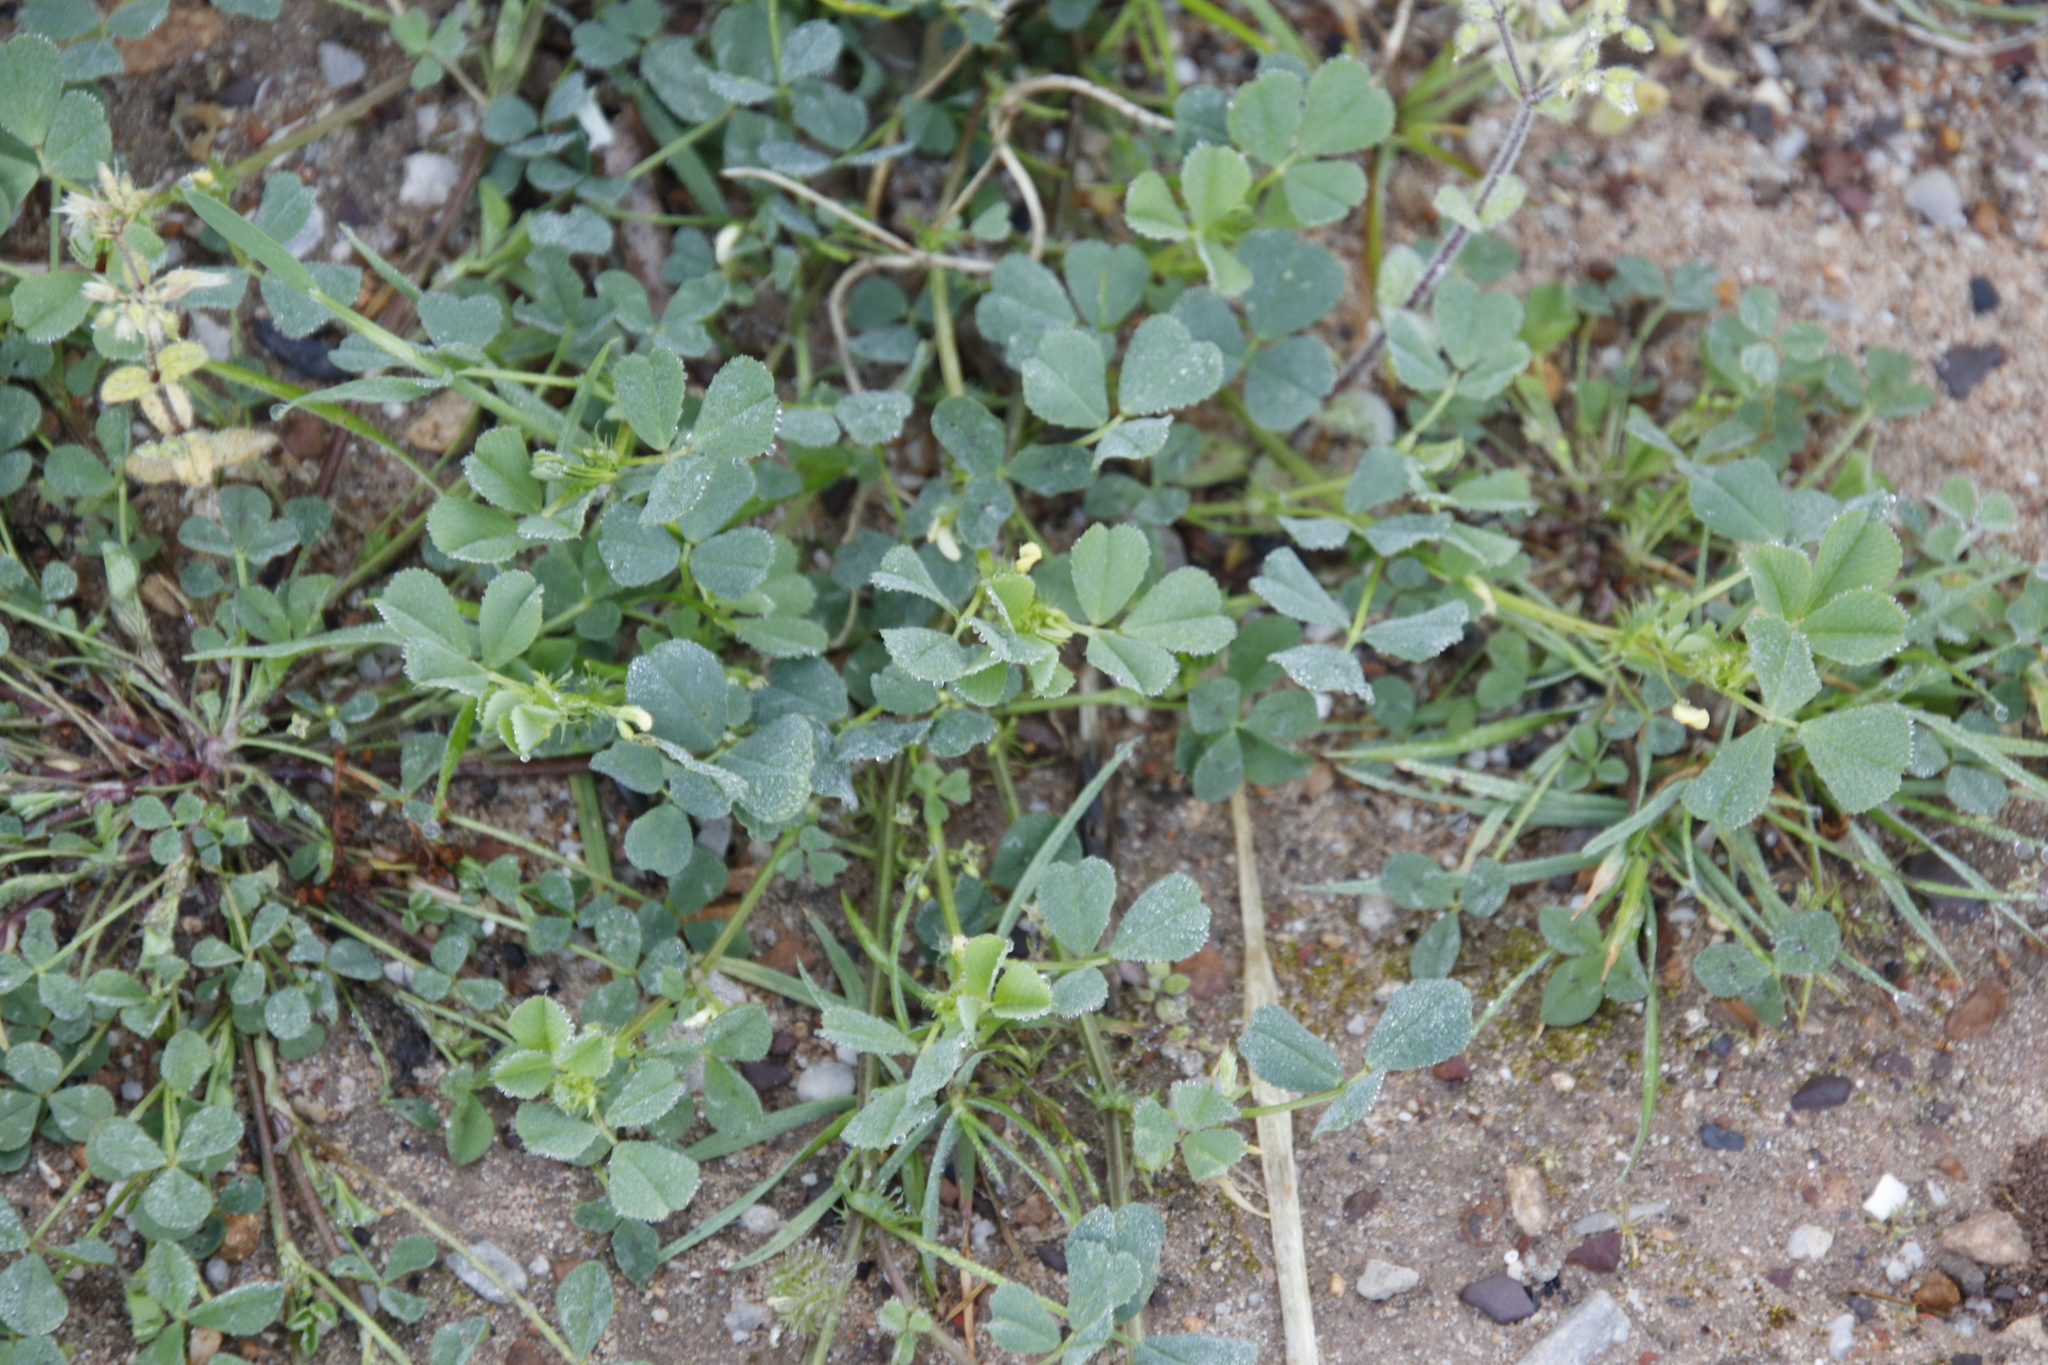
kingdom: Plantae
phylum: Tracheophyta
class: Magnoliopsida
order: Fabales
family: Fabaceae
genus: Medicago
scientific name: Medicago polymorpha
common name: Burclover
